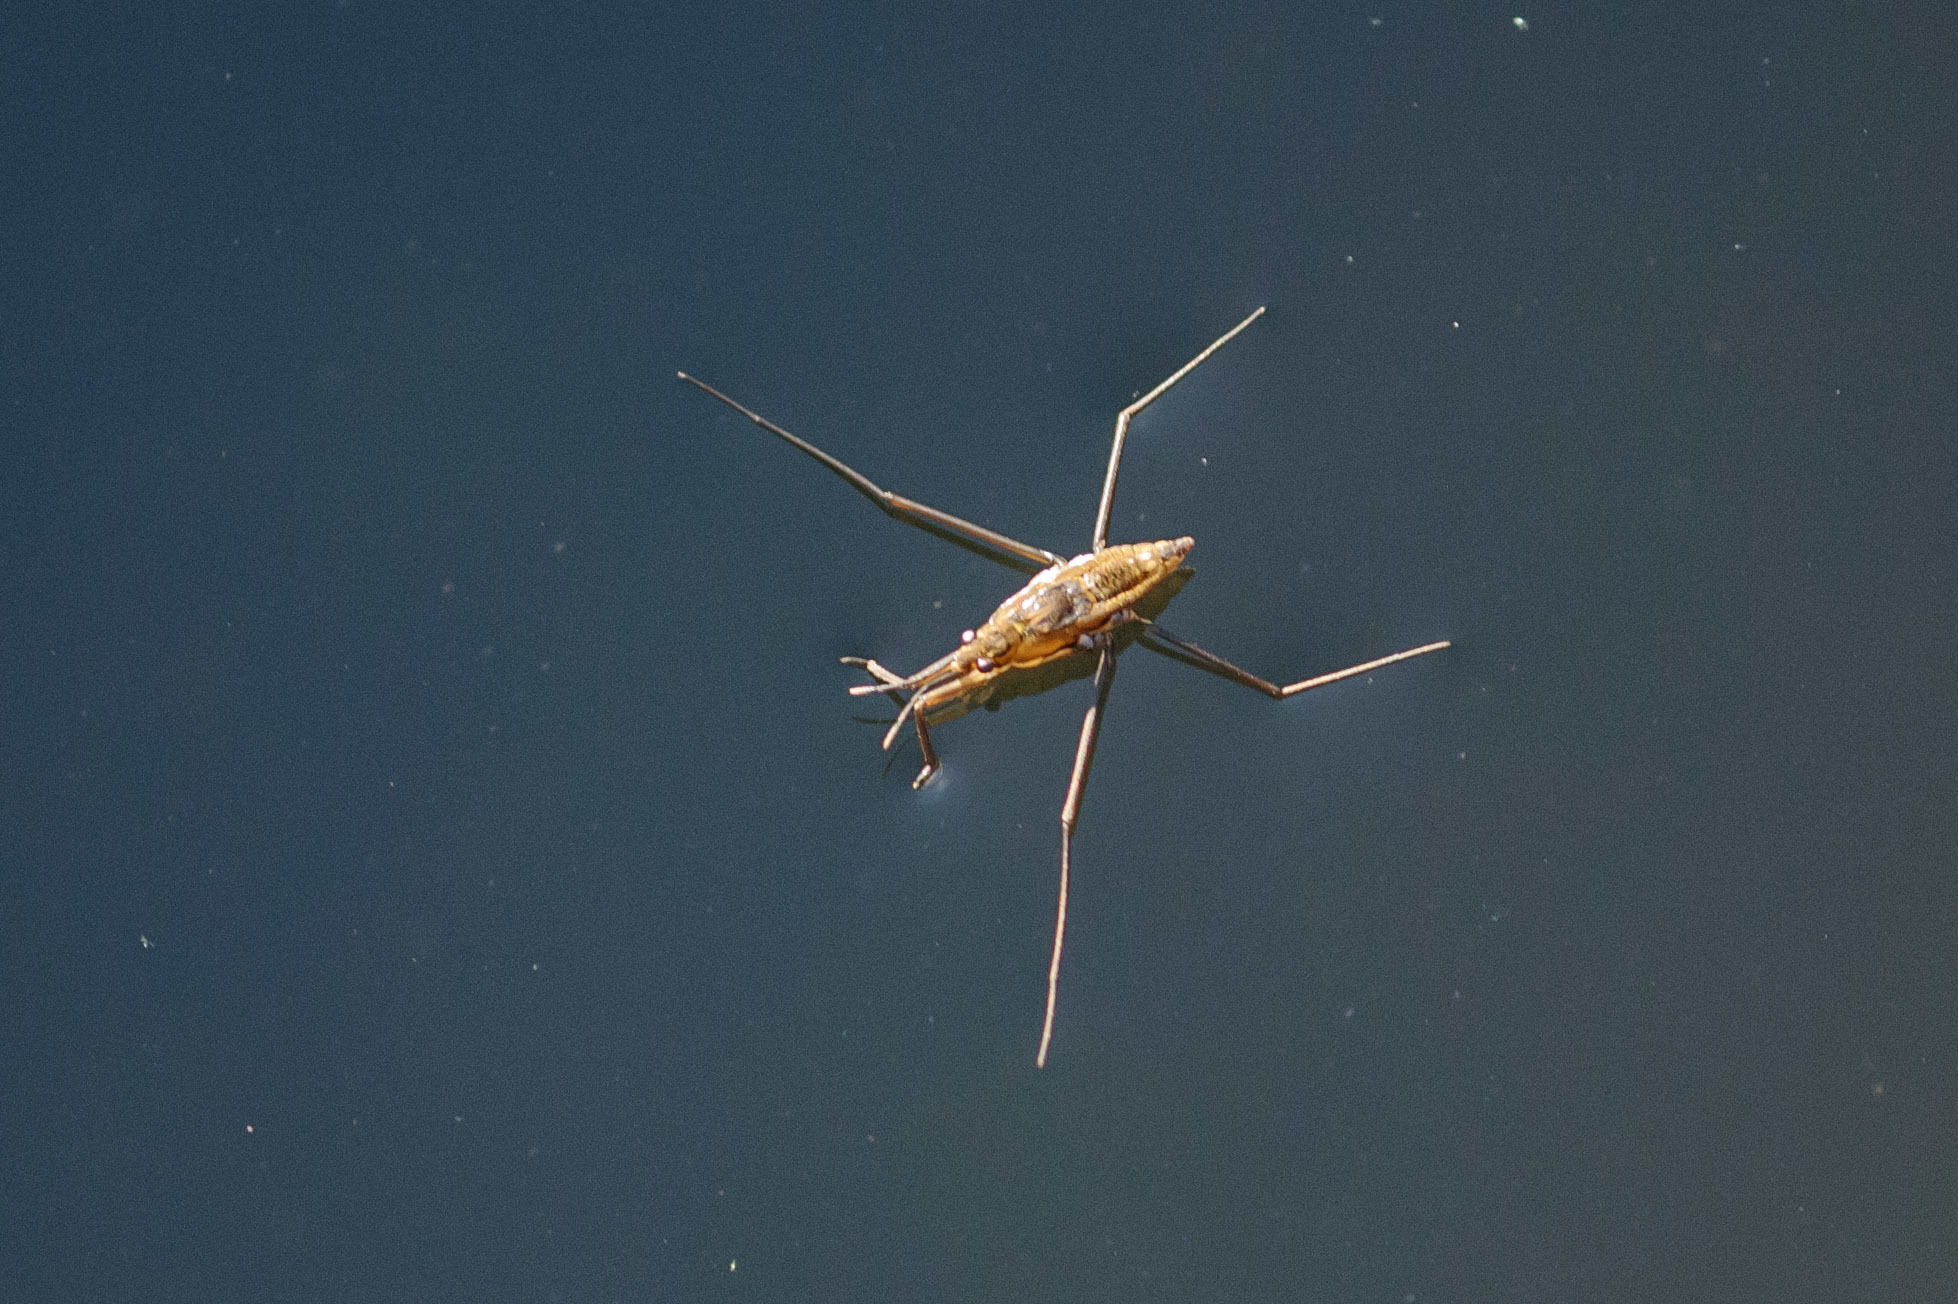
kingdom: Animalia
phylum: Arthropoda
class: Insecta
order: Hemiptera
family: Gerridae
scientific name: Gerridae
